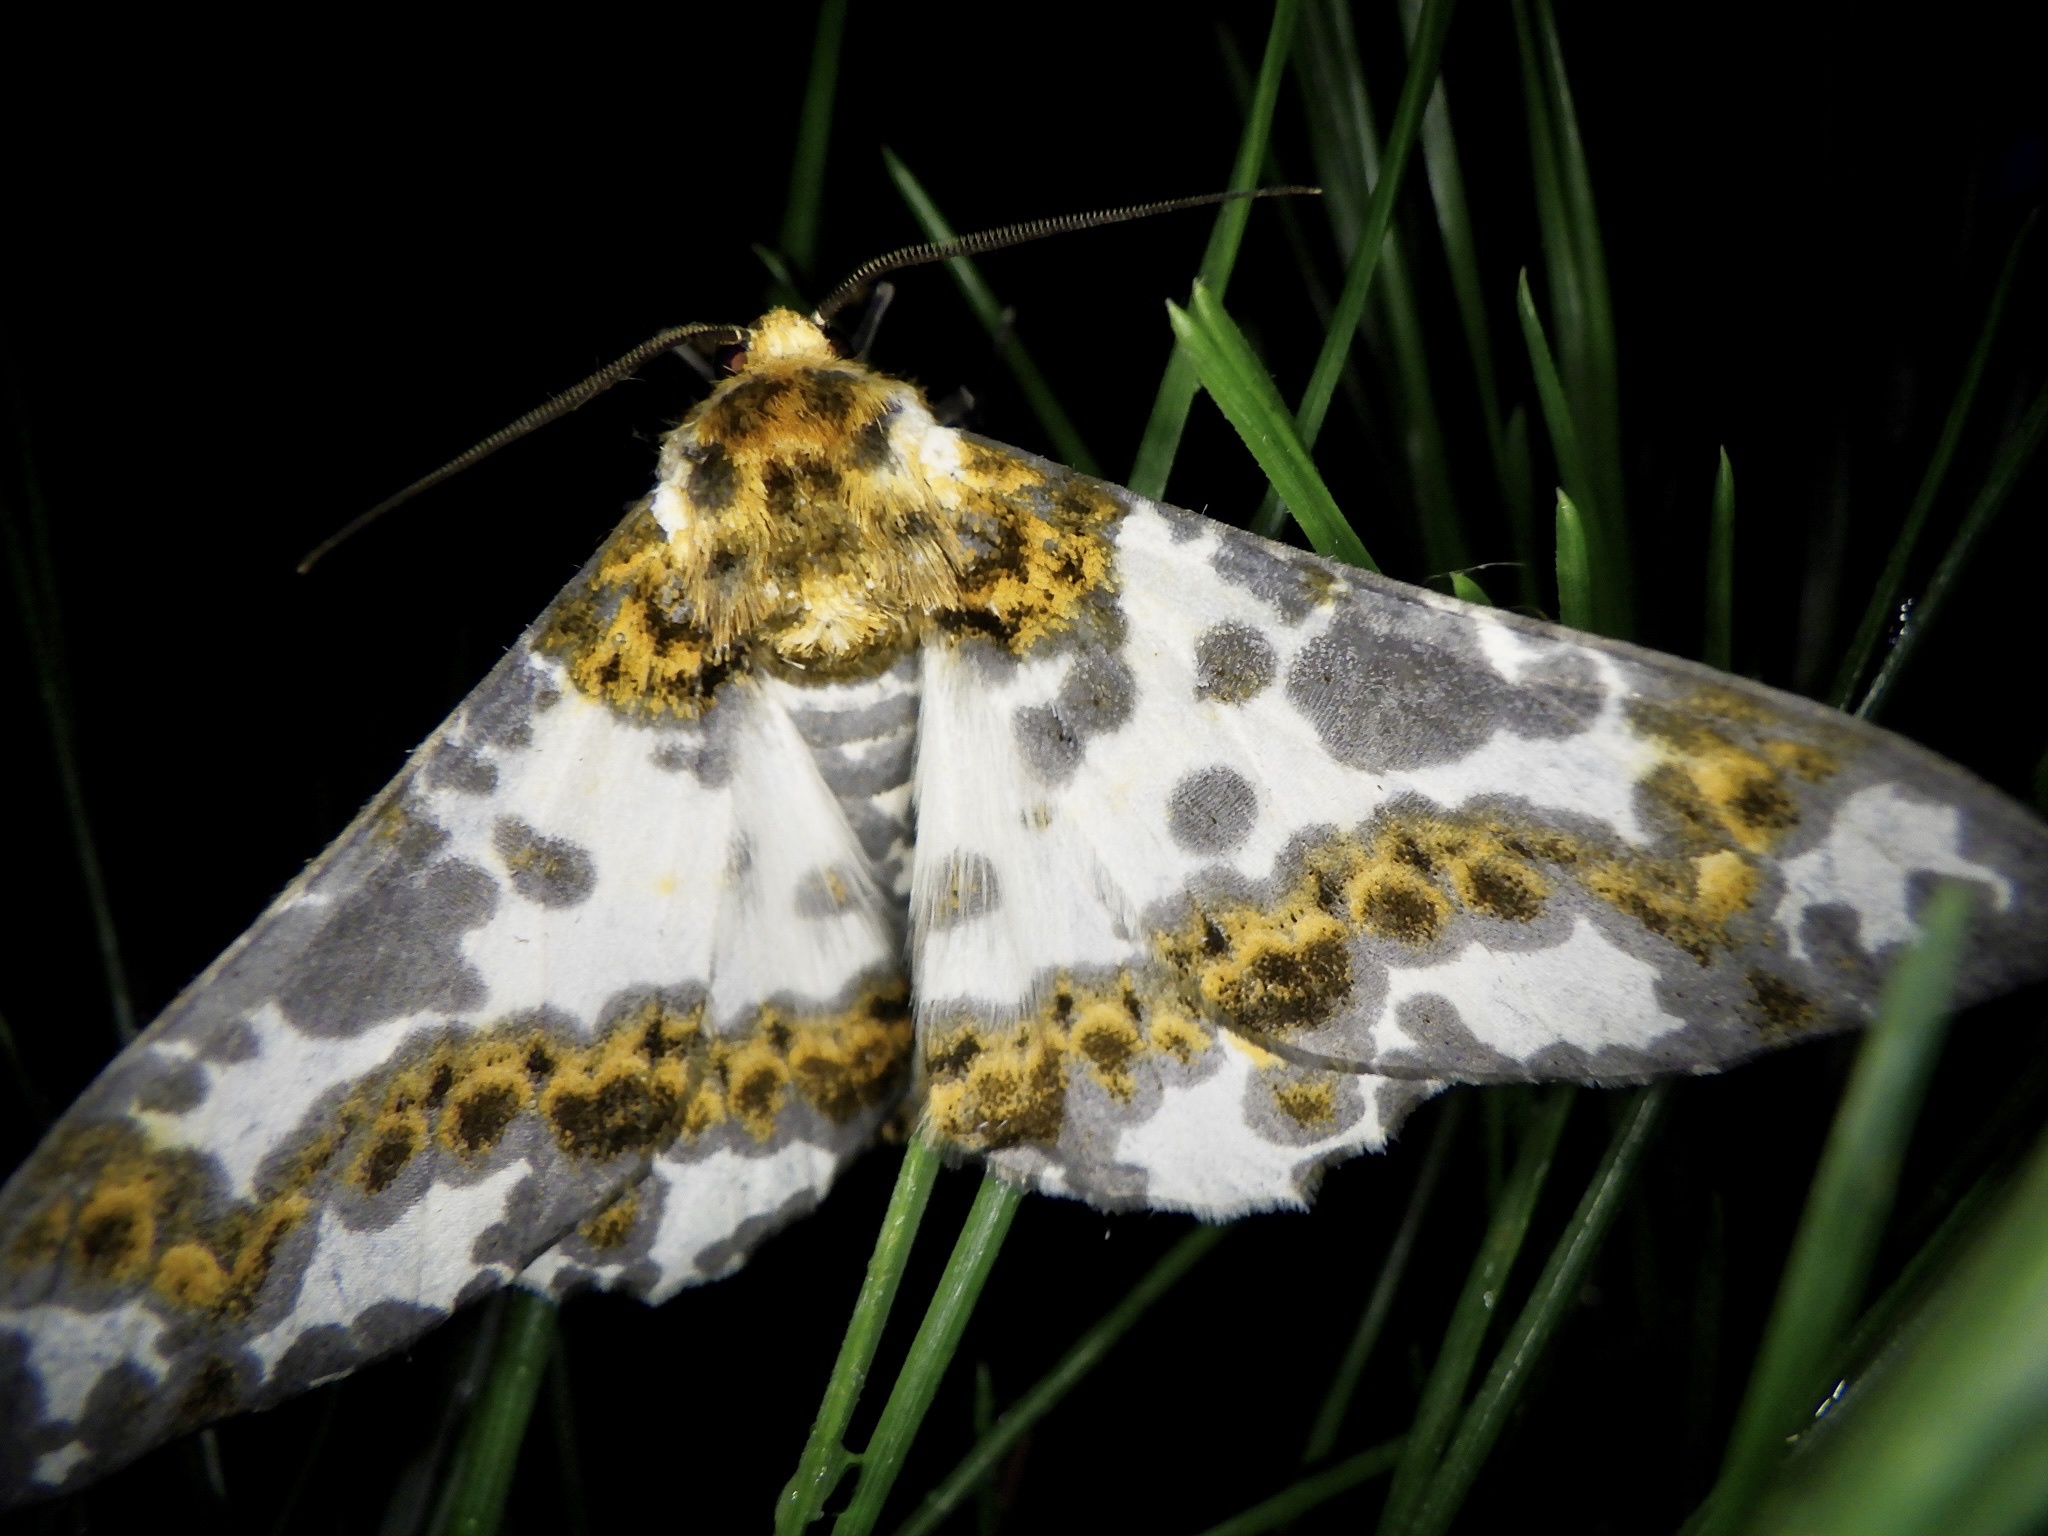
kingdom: Animalia
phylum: Arthropoda
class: Insecta
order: Lepidoptera
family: Geometridae
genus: Biston
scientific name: Biston panterinaria
